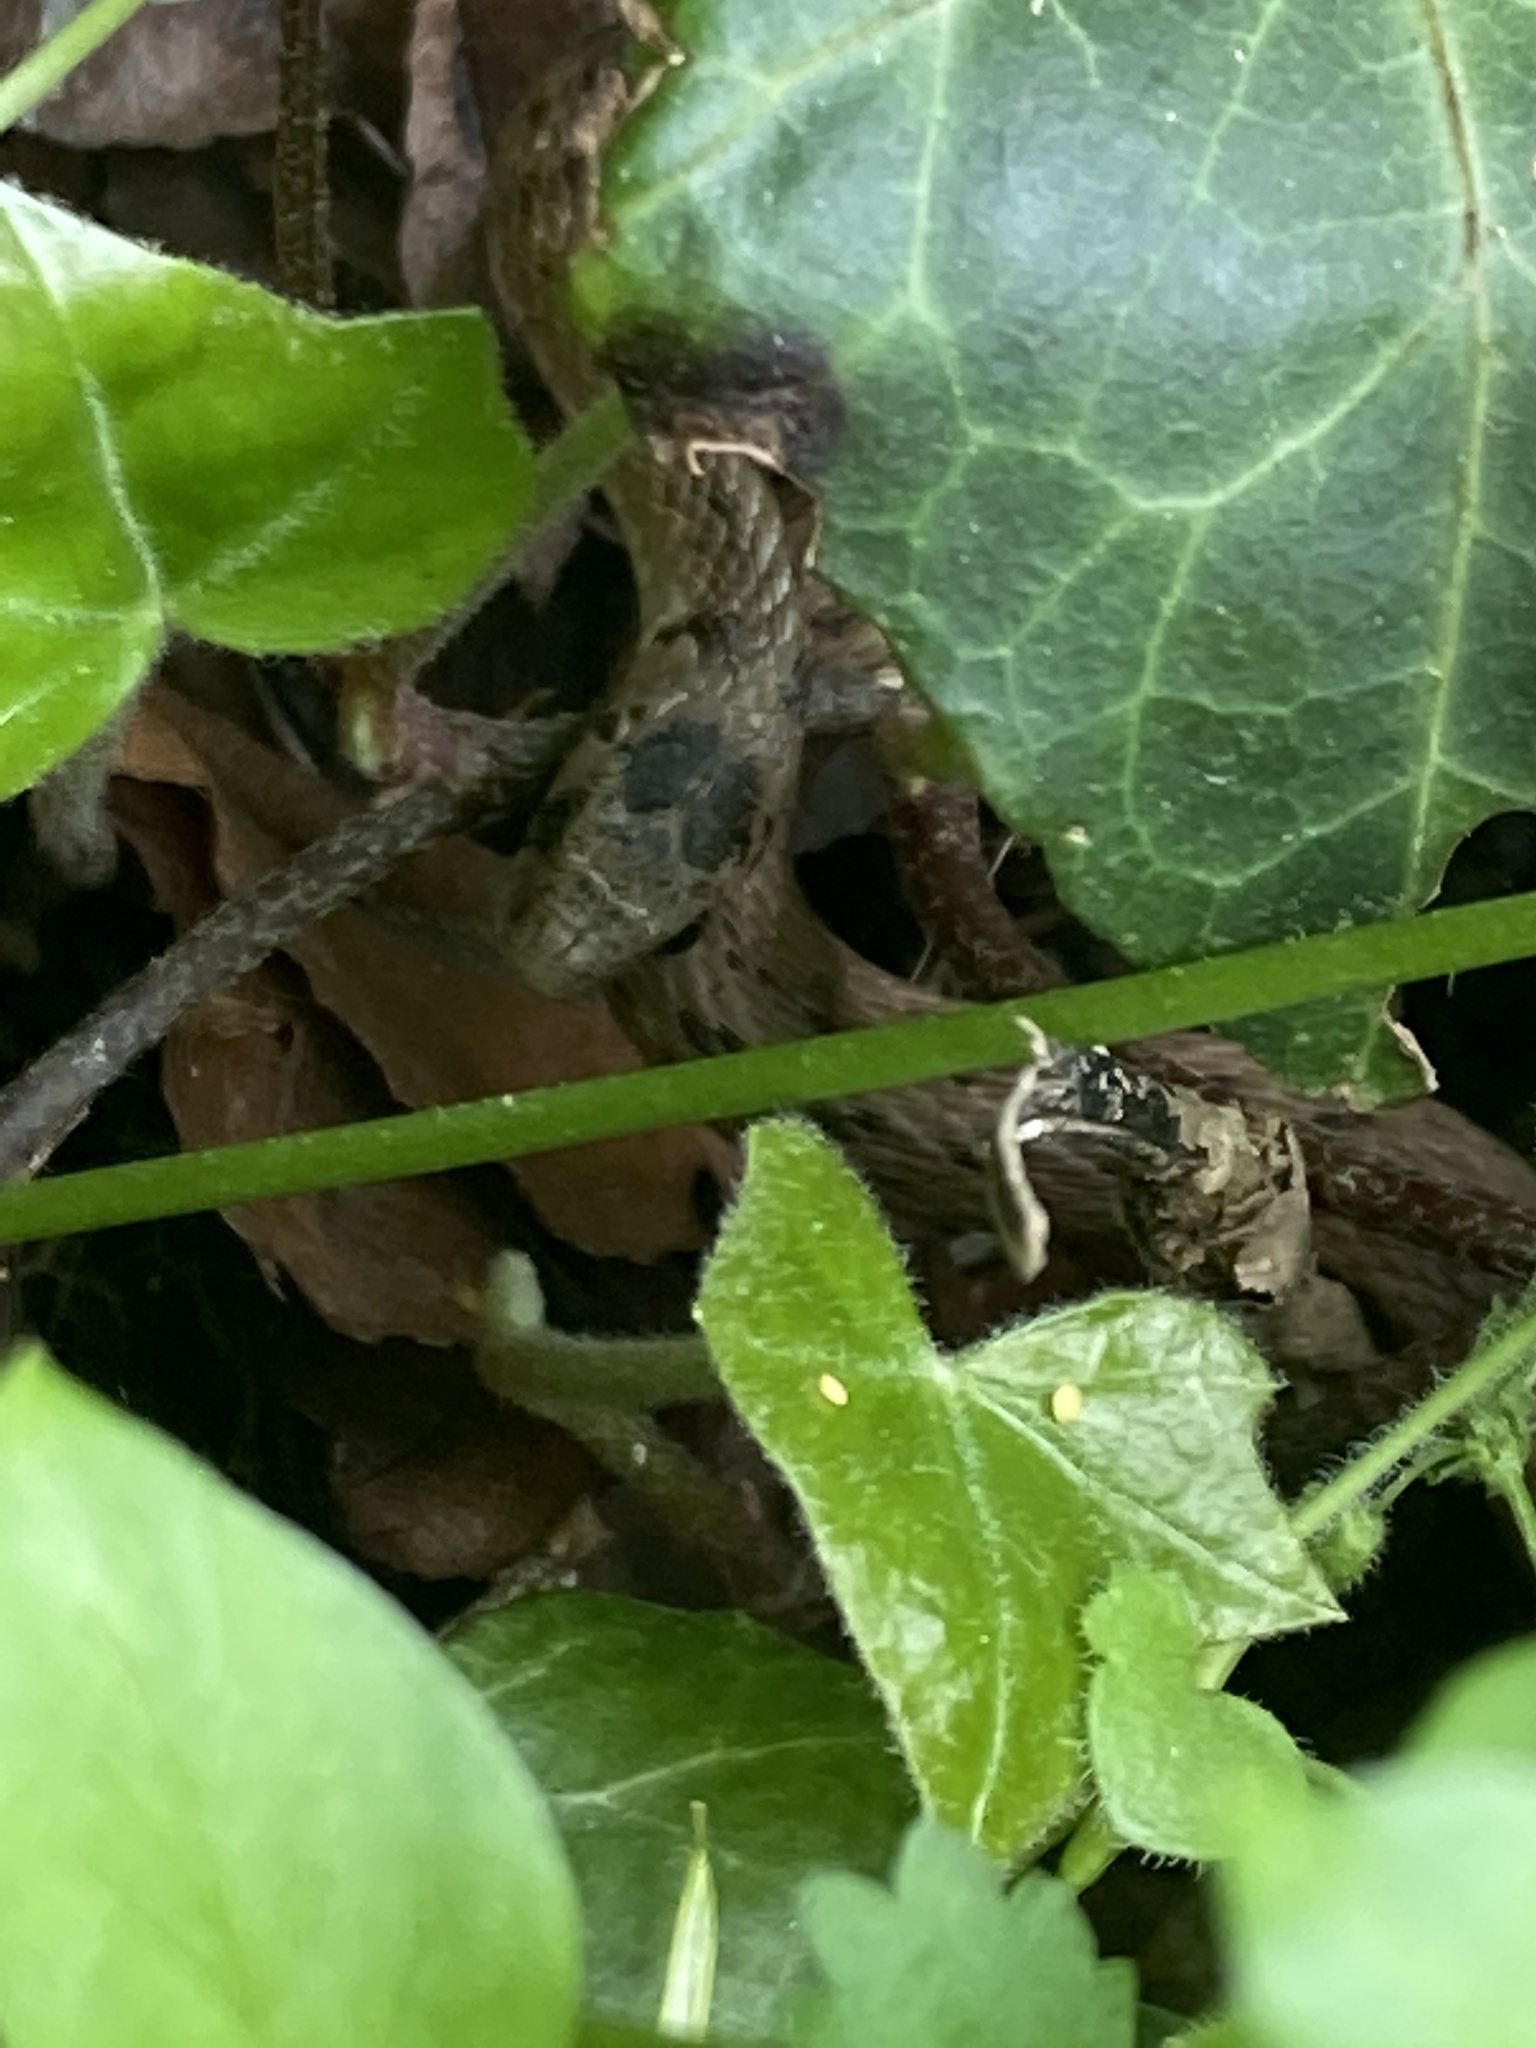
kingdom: Animalia
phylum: Chordata
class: Squamata
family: Colubridae
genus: Storeria
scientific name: Storeria dekayi
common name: (dekay’s) brown snake
